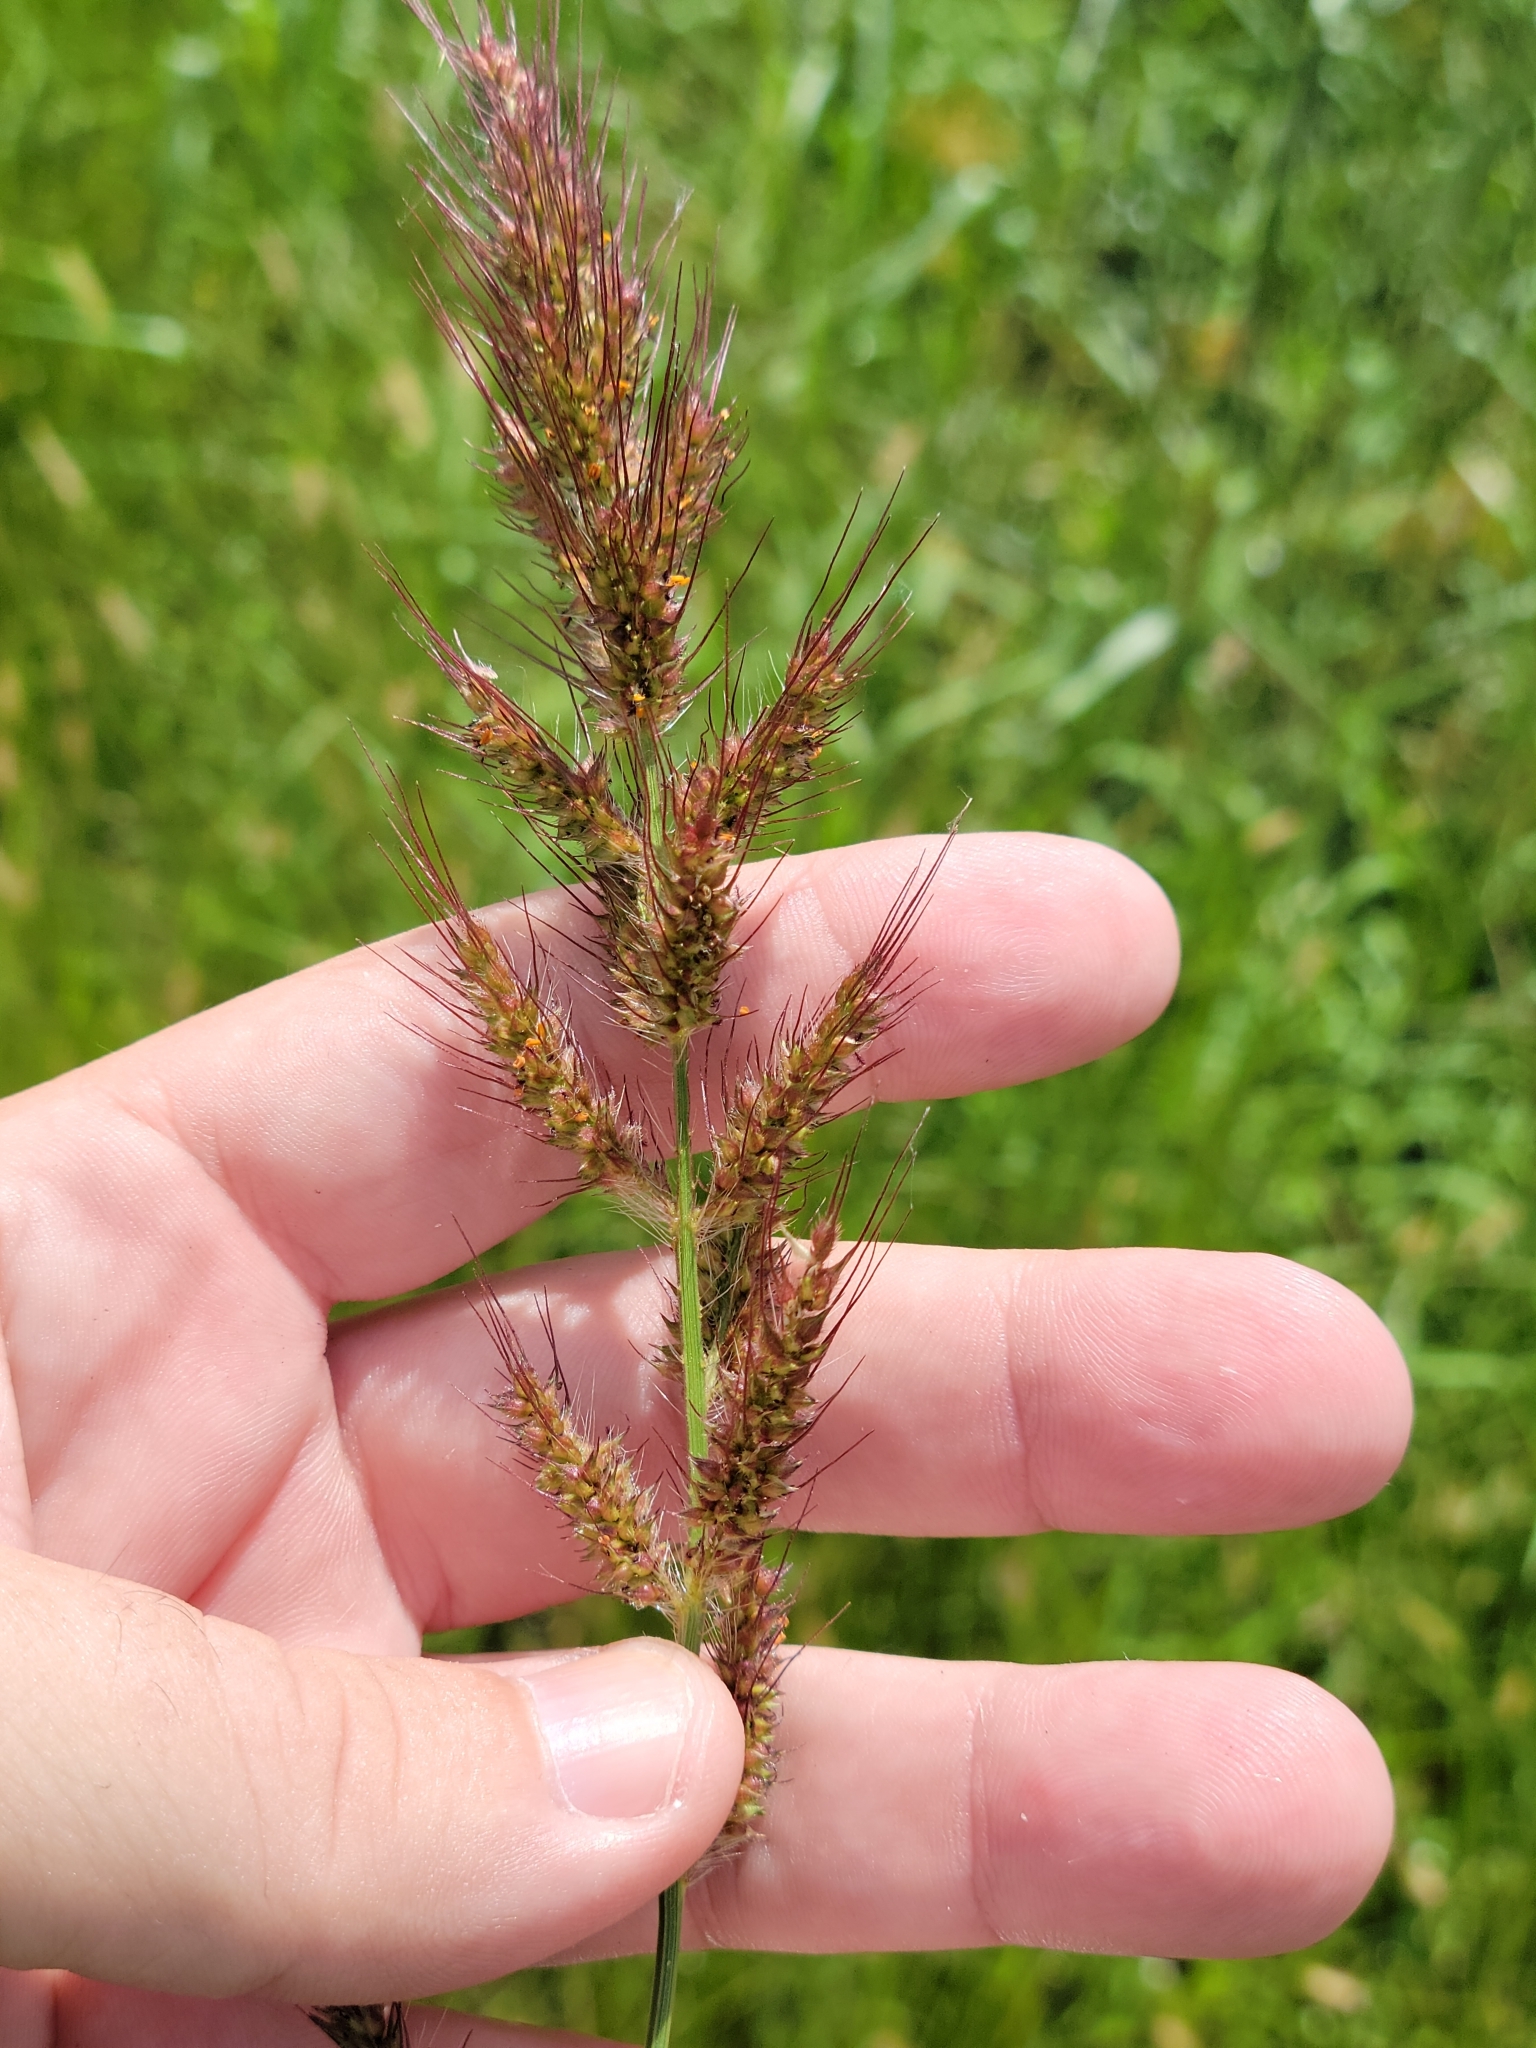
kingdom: Plantae
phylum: Tracheophyta
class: Liliopsida
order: Poales
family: Poaceae
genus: Echinochloa
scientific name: Echinochloa walteri
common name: Coast barnyard grass
